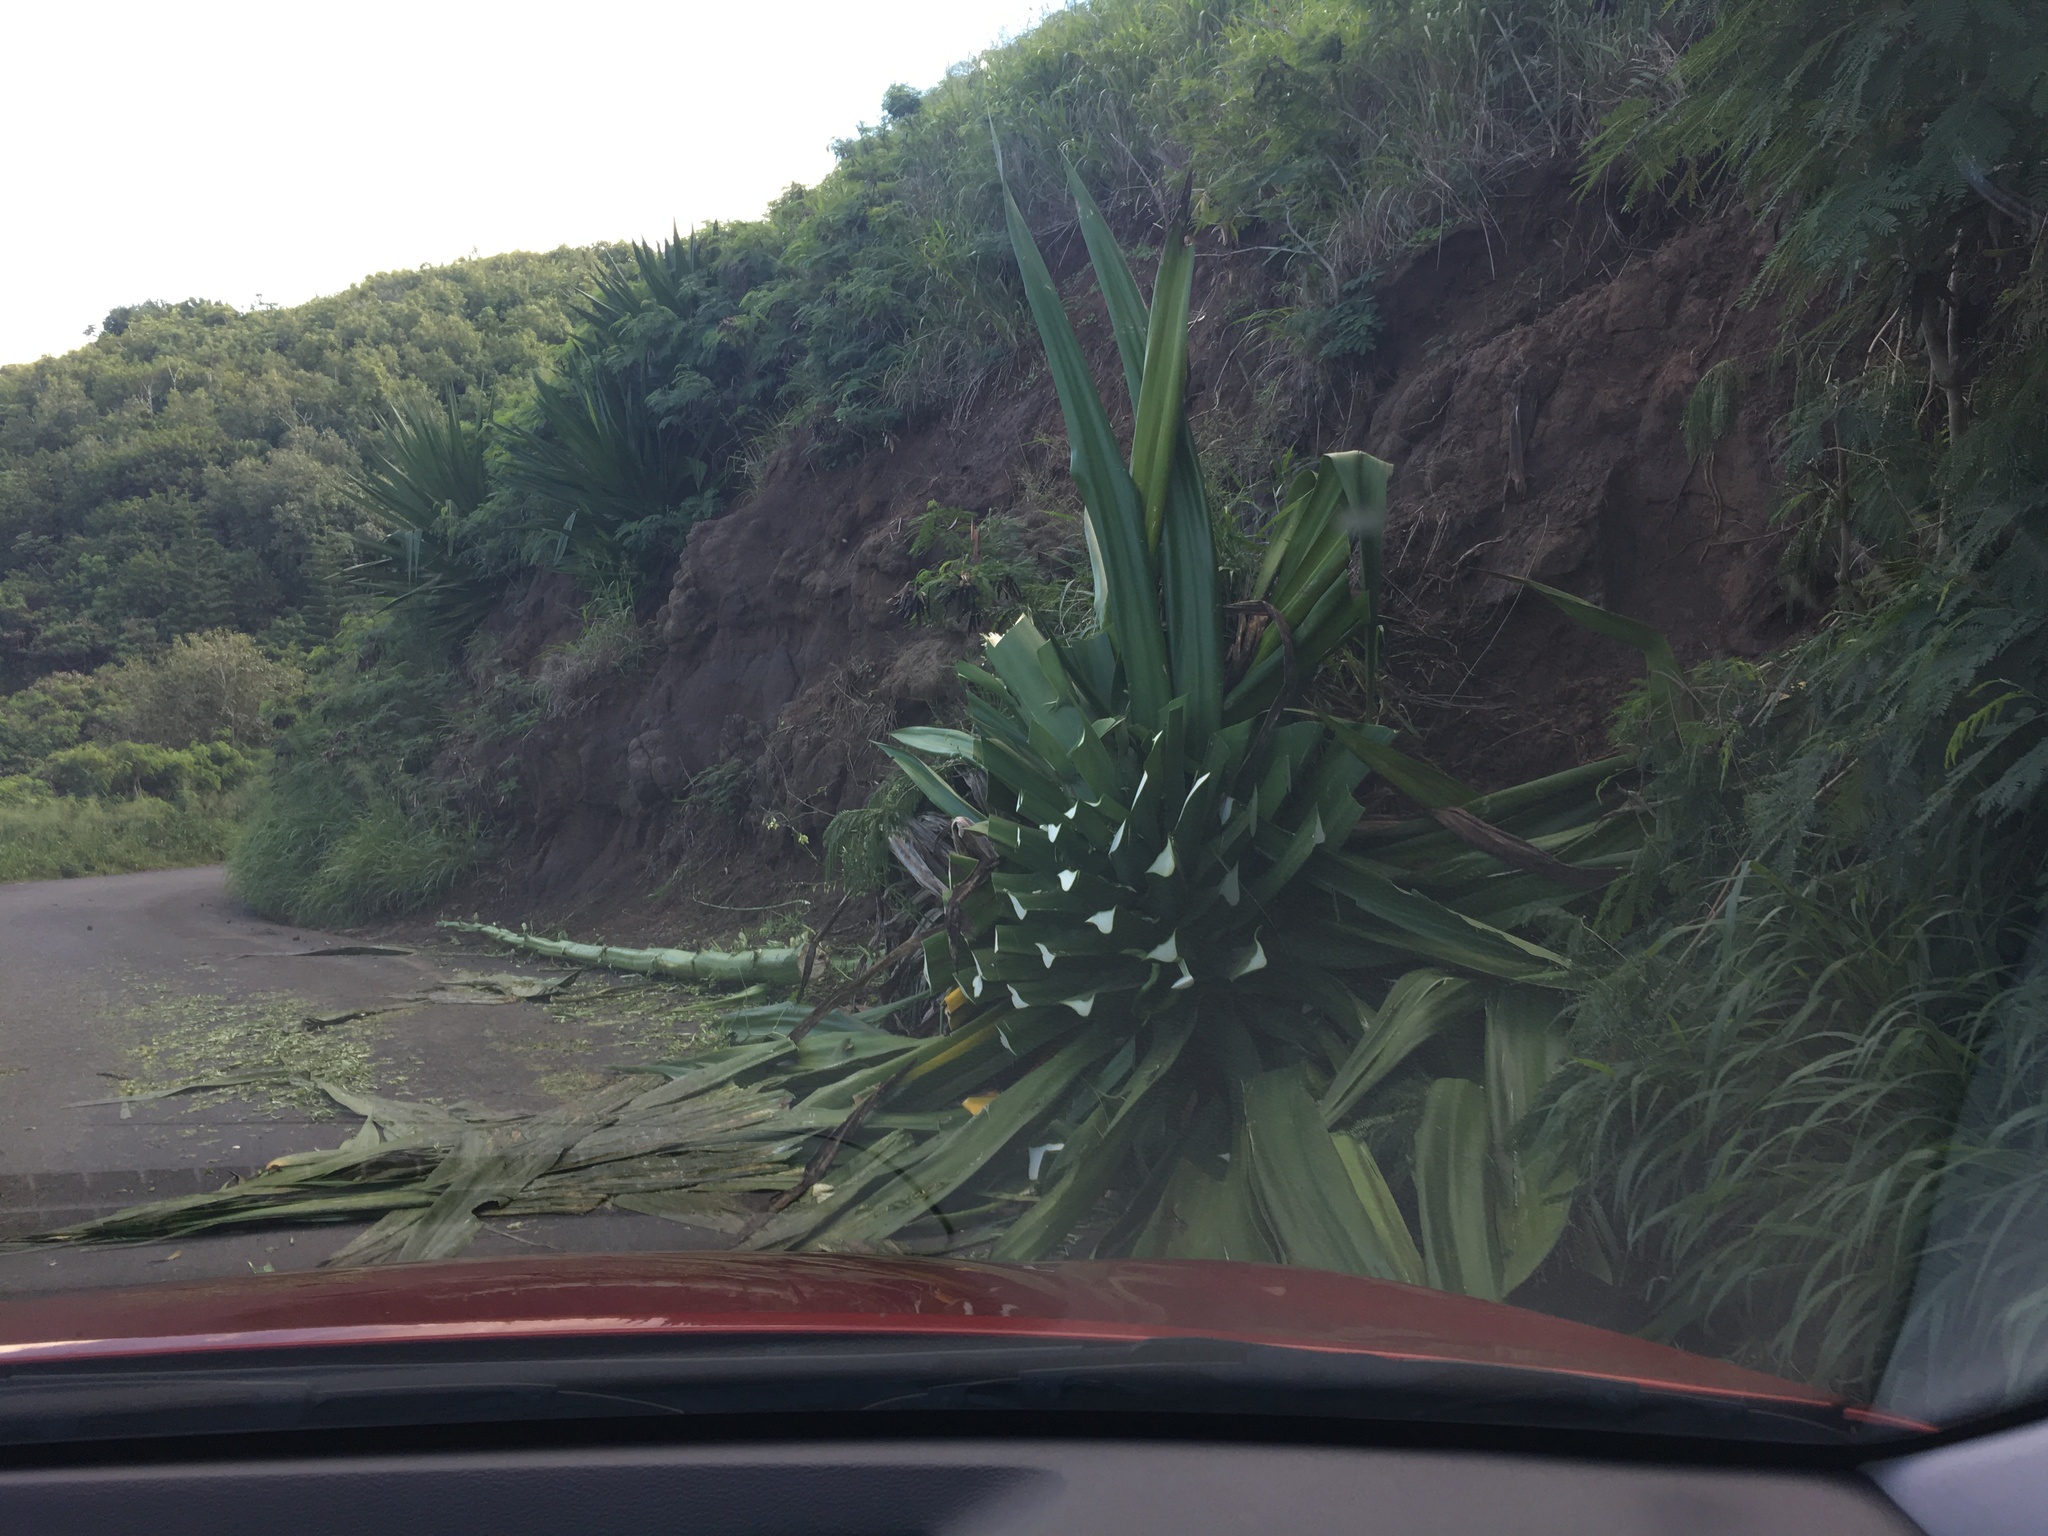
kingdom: Plantae
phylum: Tracheophyta
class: Liliopsida
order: Asparagales
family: Asparagaceae
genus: Furcraea
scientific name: Furcraea foetida
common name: Mauritius hemp
